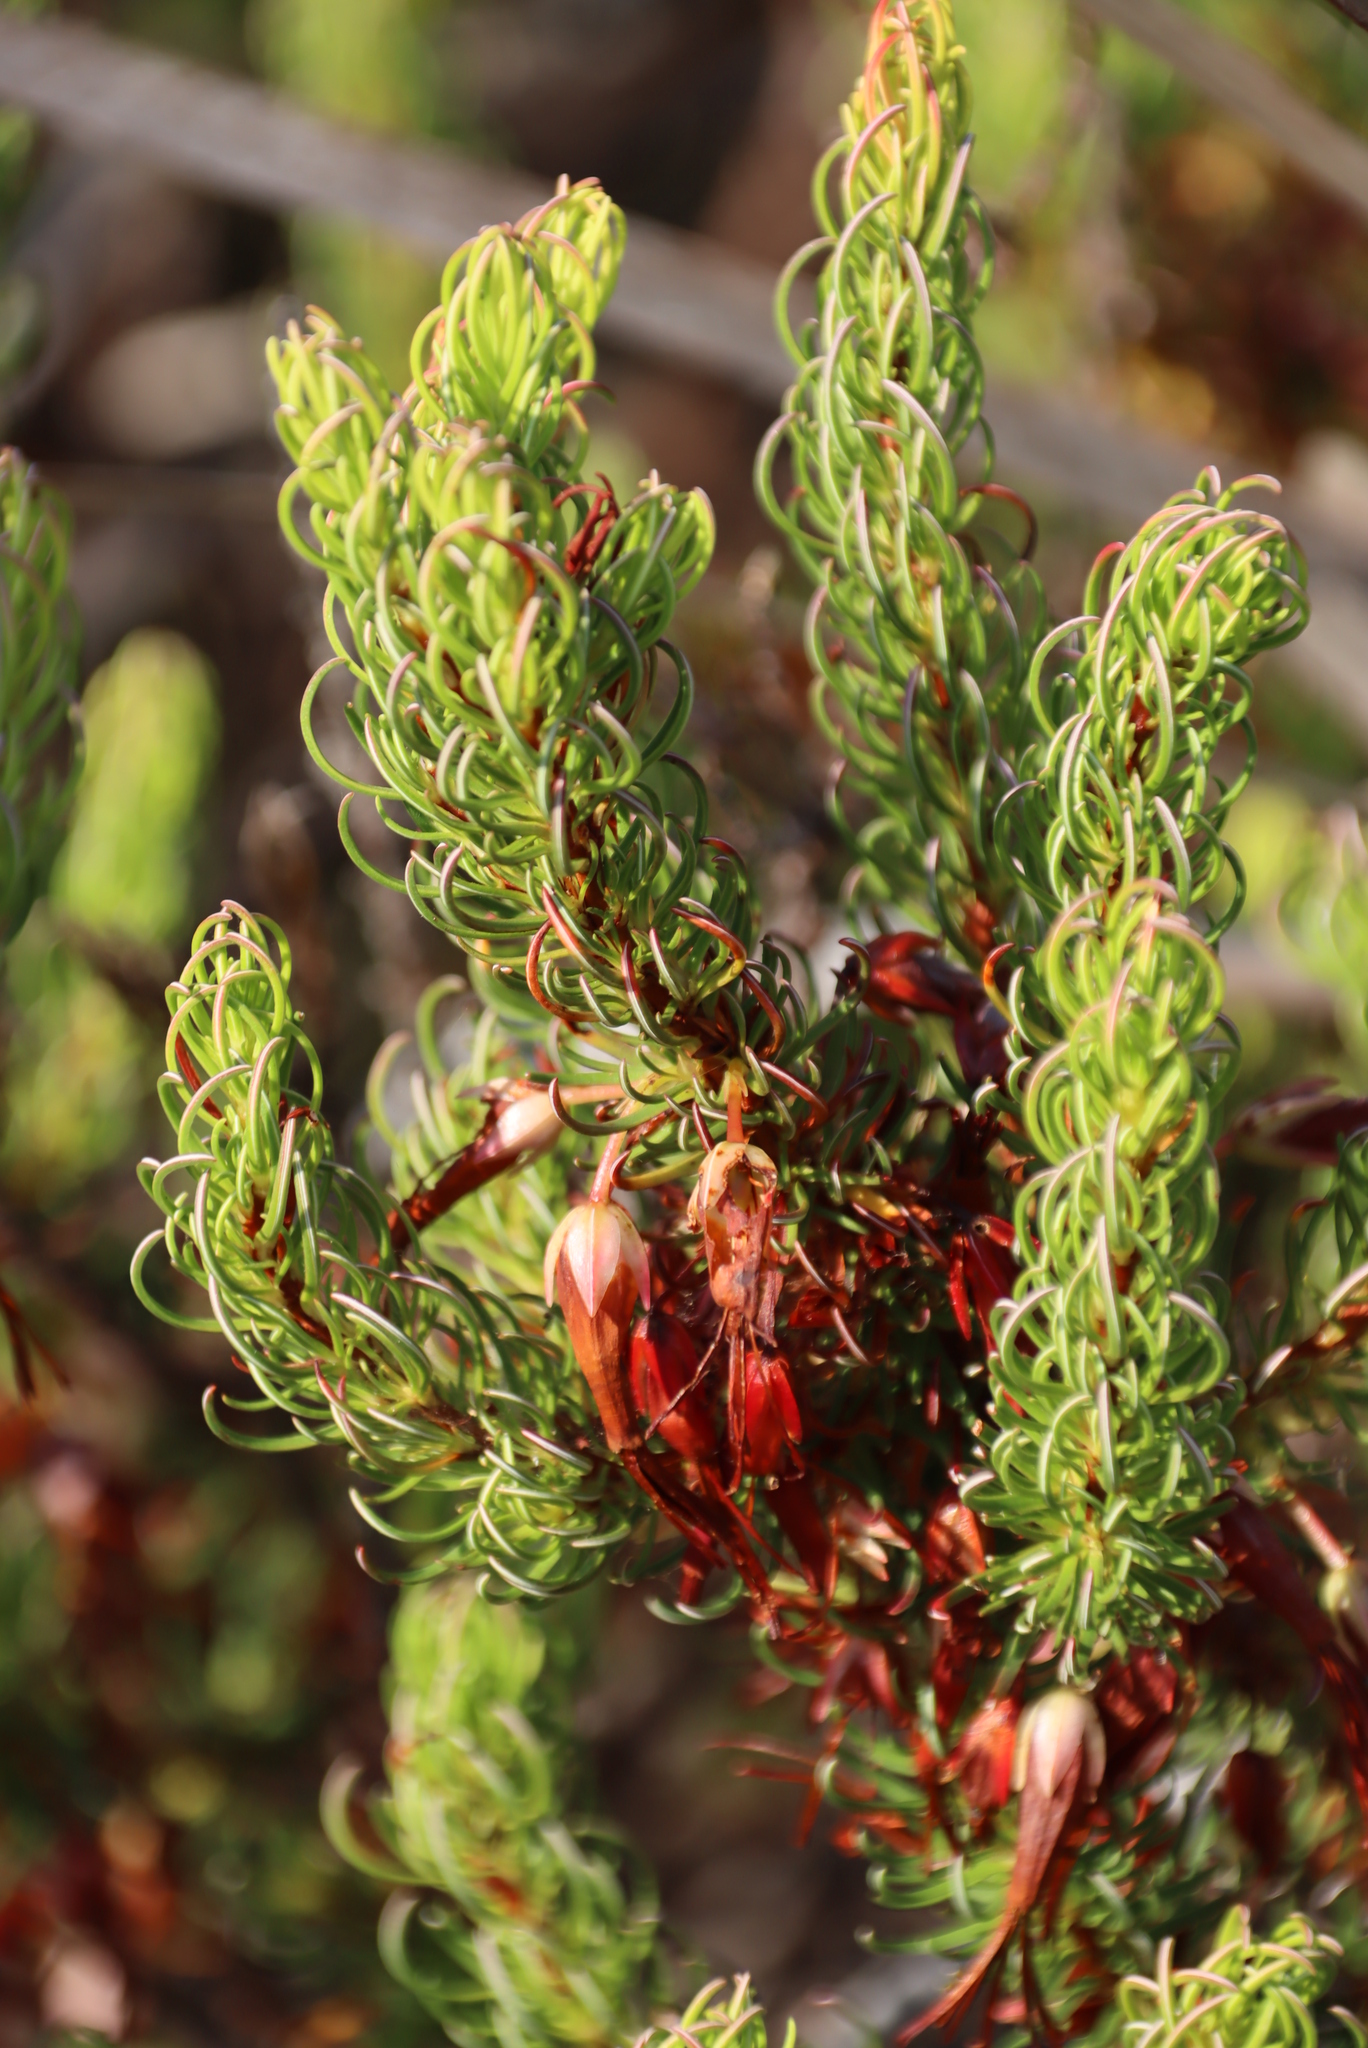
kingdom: Plantae
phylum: Tracheophyta
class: Magnoliopsida
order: Ericales
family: Ericaceae
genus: Erica
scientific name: Erica plukenetii
